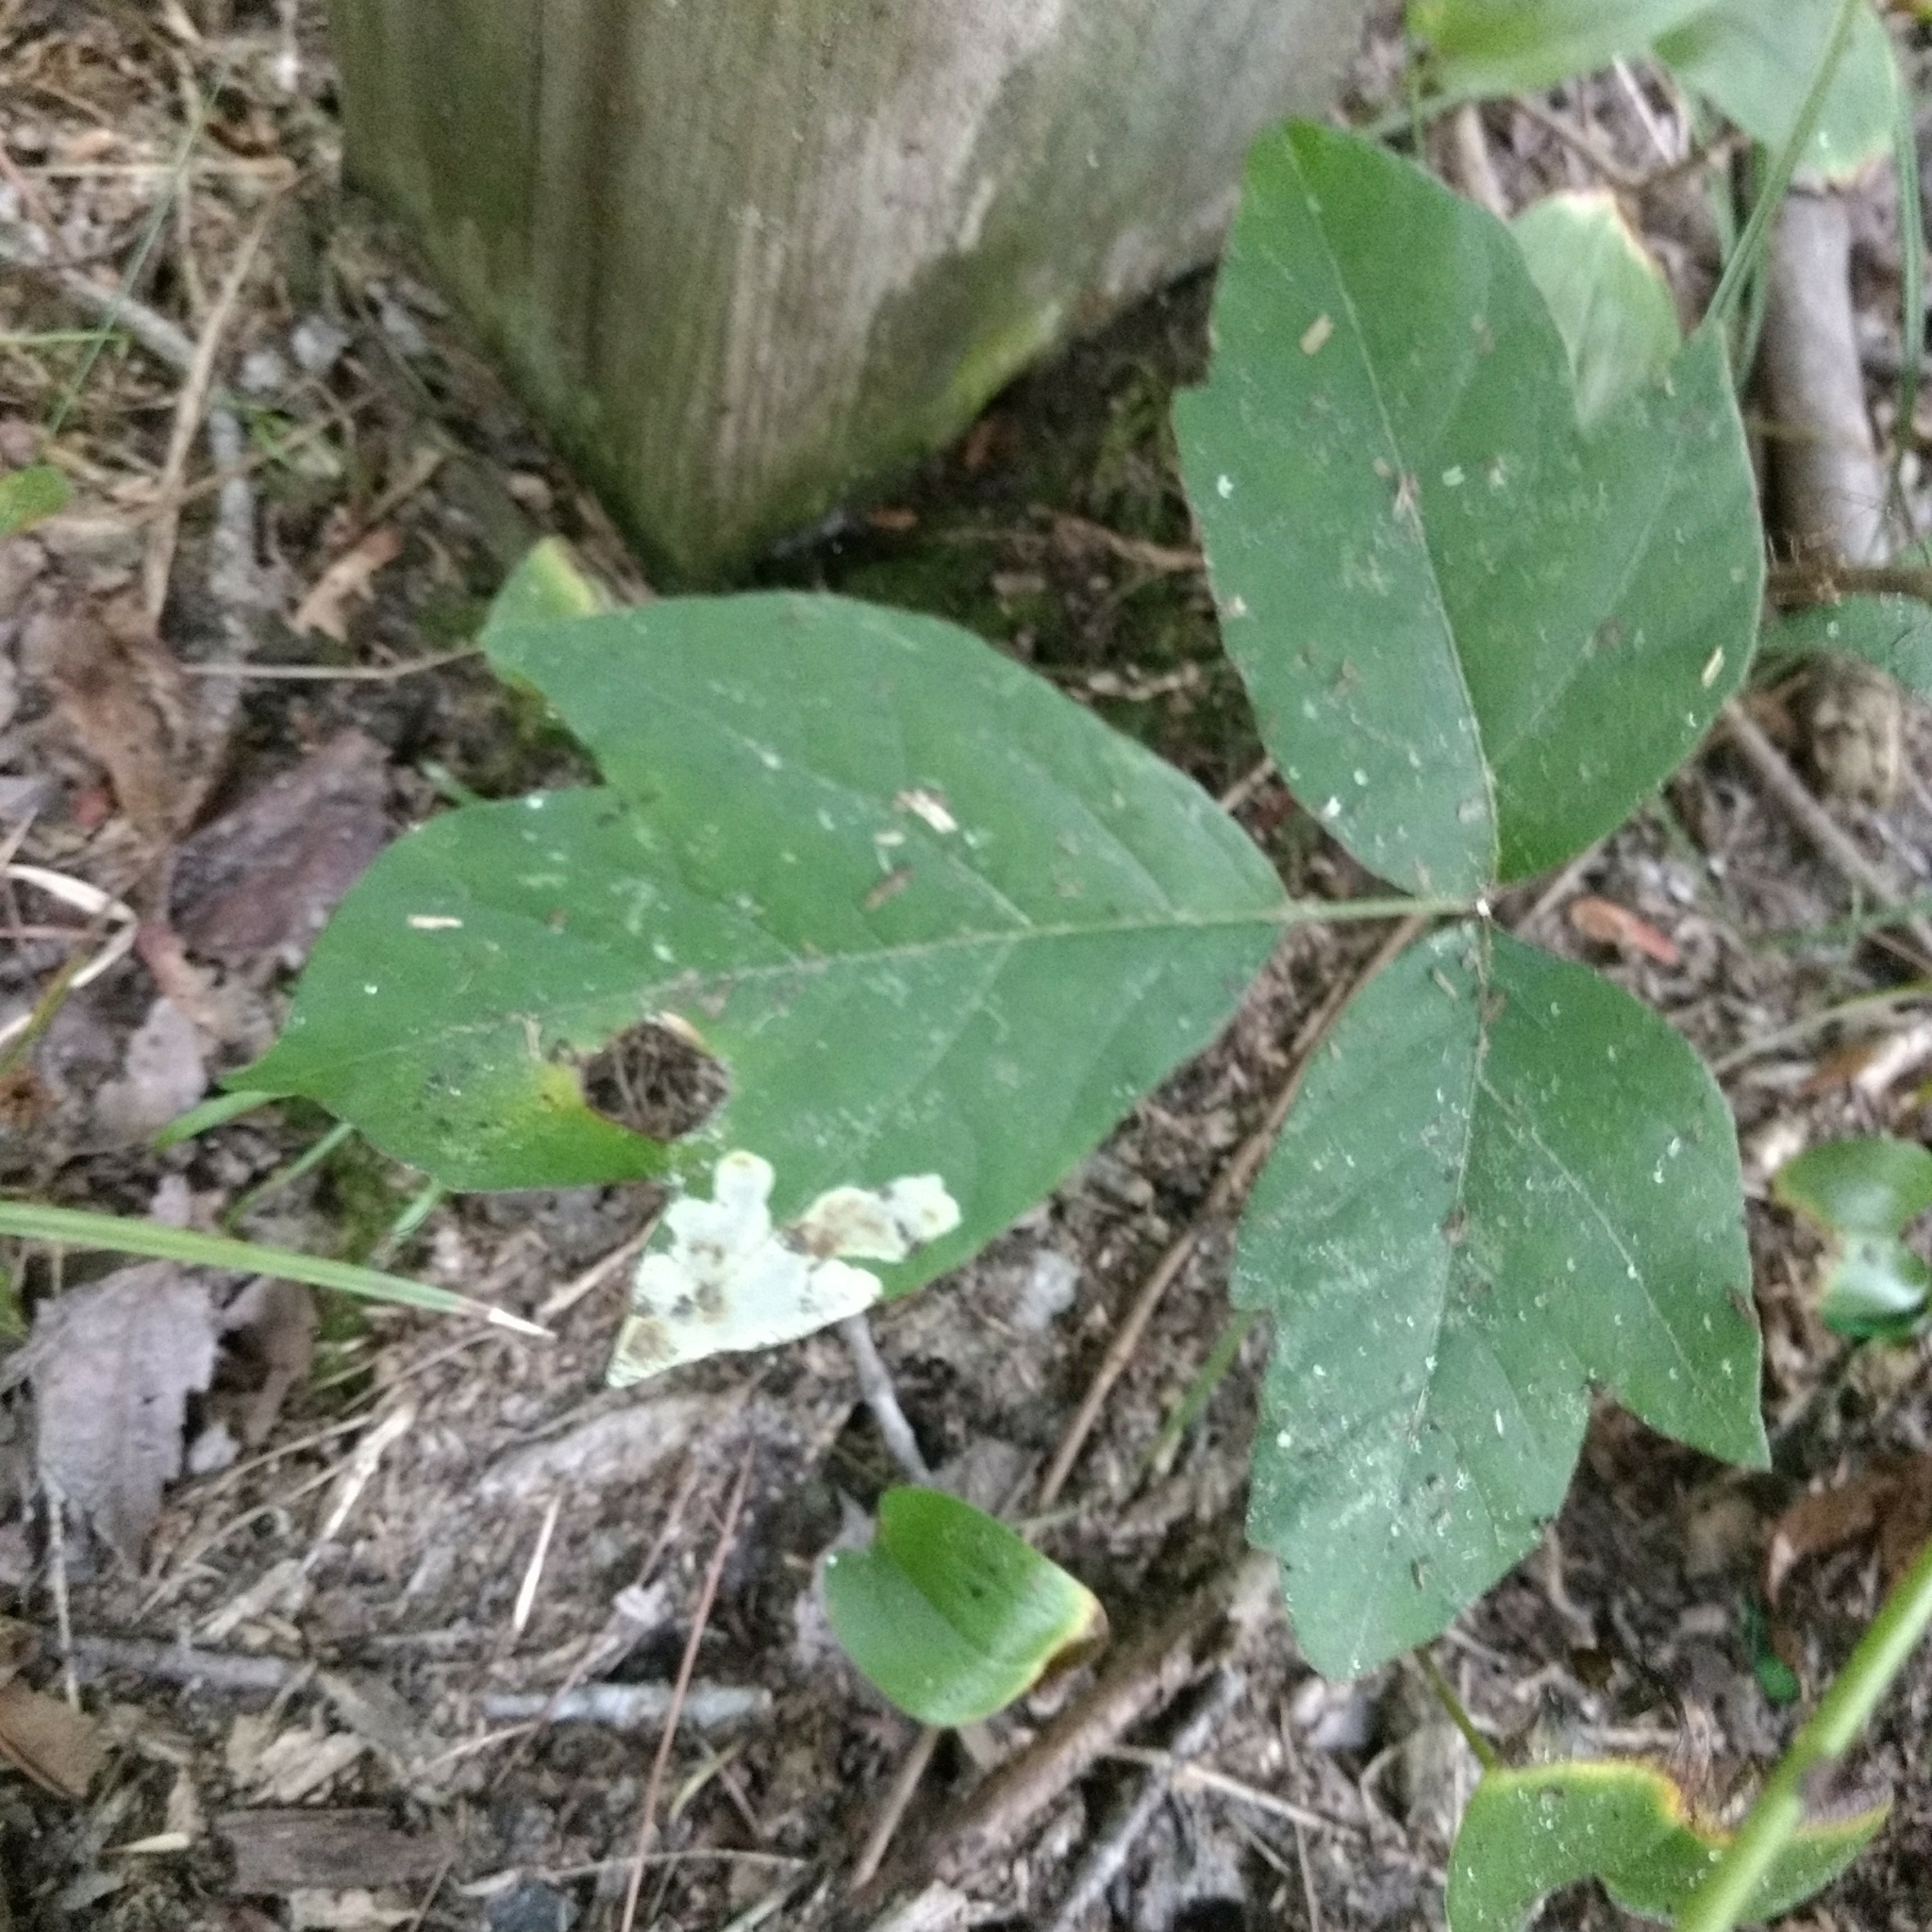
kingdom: Animalia
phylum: Arthropoda
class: Insecta
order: Lepidoptera
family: Gracillariidae
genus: Cameraria
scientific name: Cameraria guttifinitella
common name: Poison ivy leaf-miner moth
